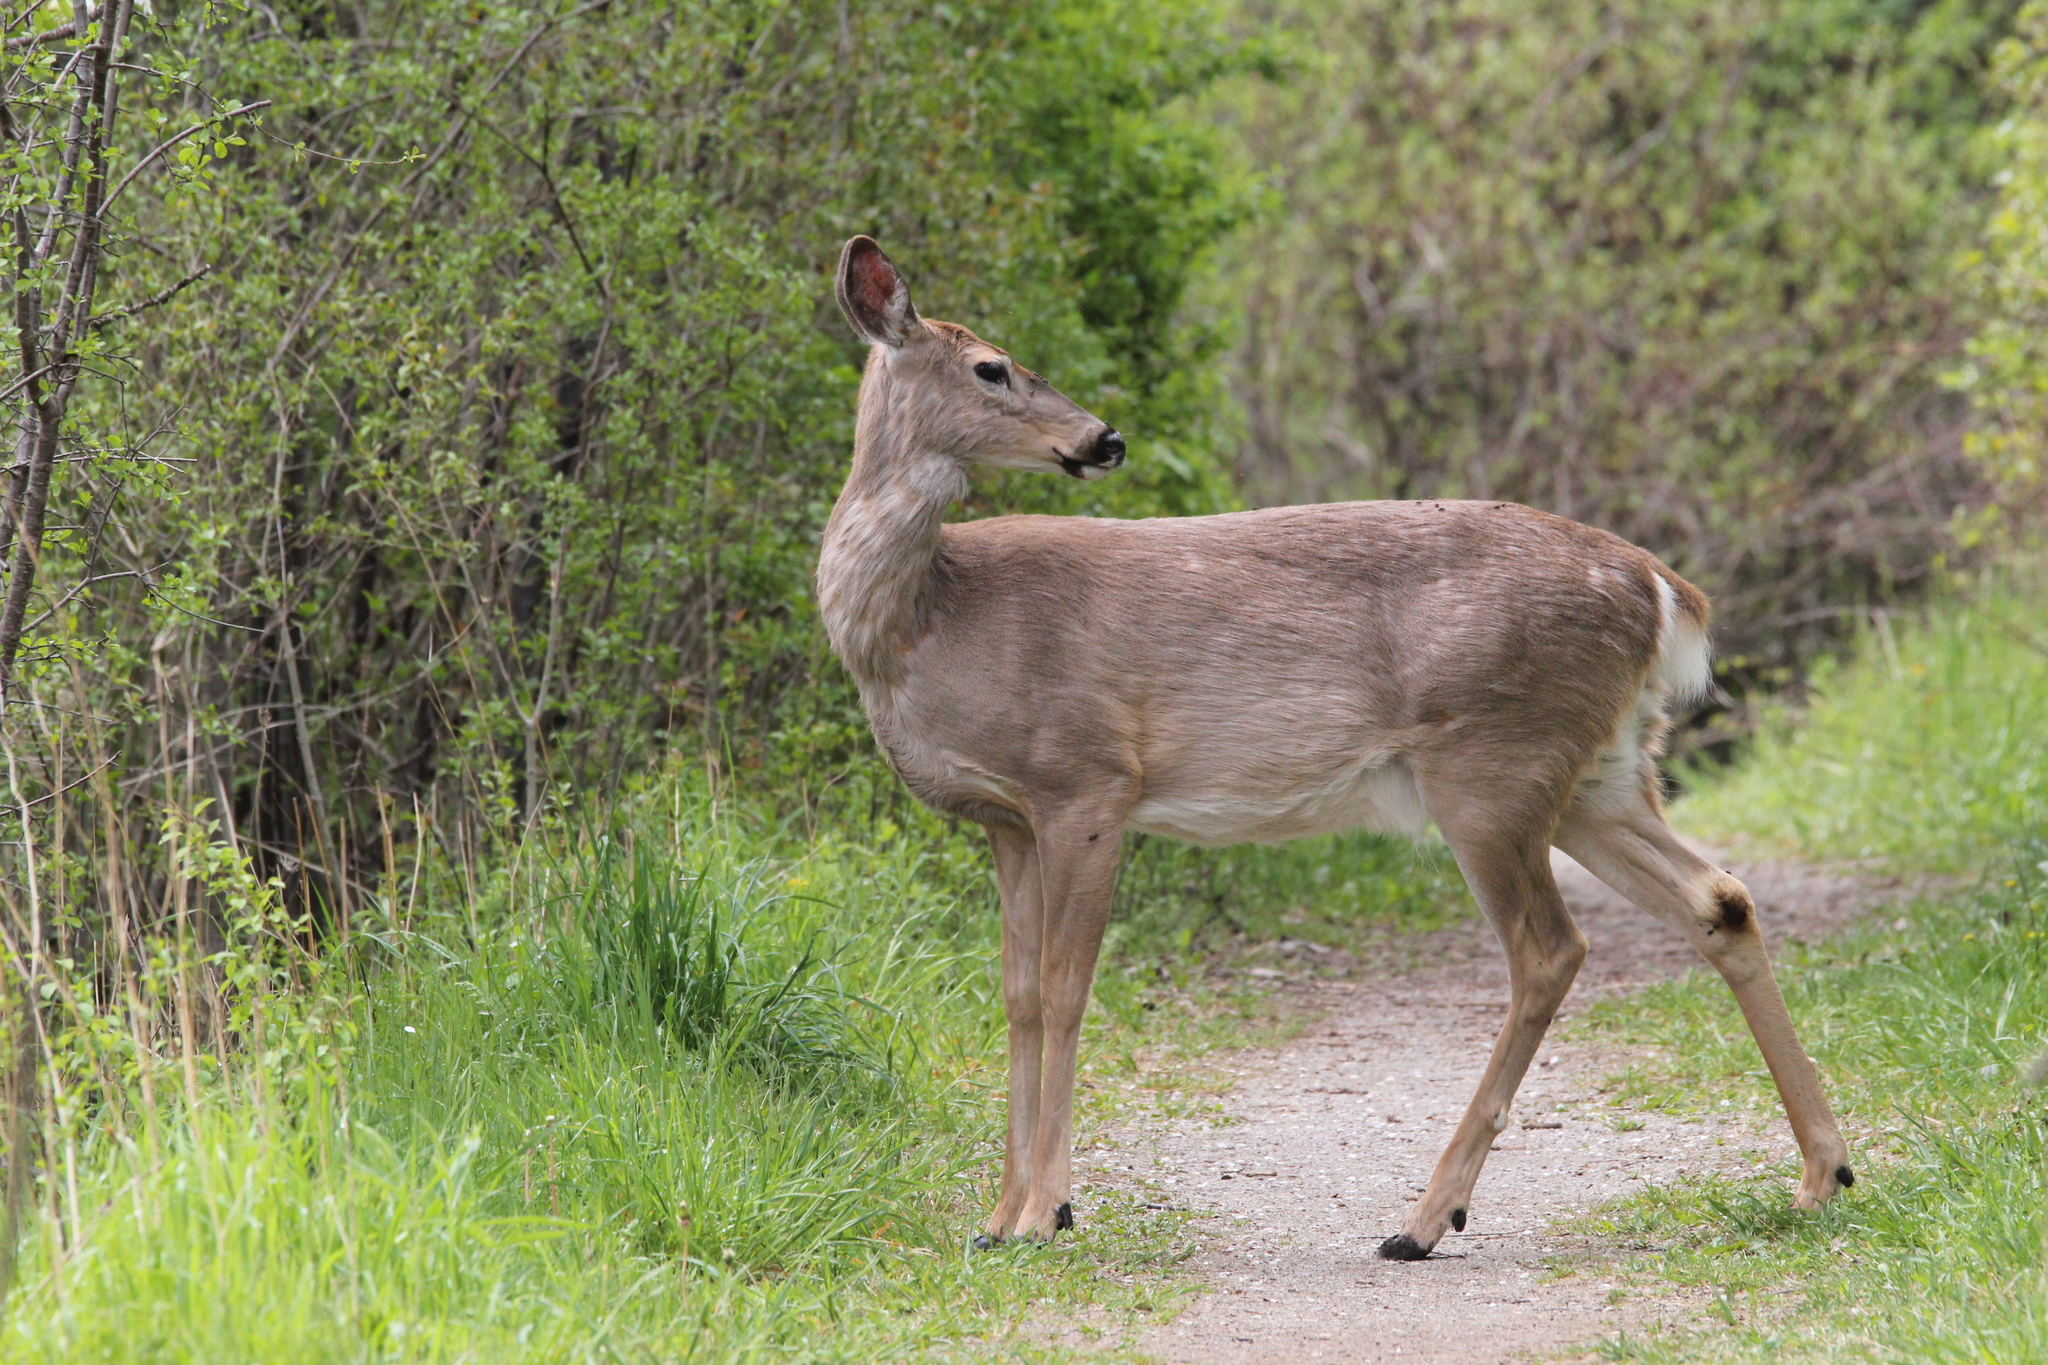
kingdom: Animalia
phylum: Chordata
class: Mammalia
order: Artiodactyla
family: Cervidae
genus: Odocoileus
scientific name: Odocoileus virginianus
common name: White-tailed deer
